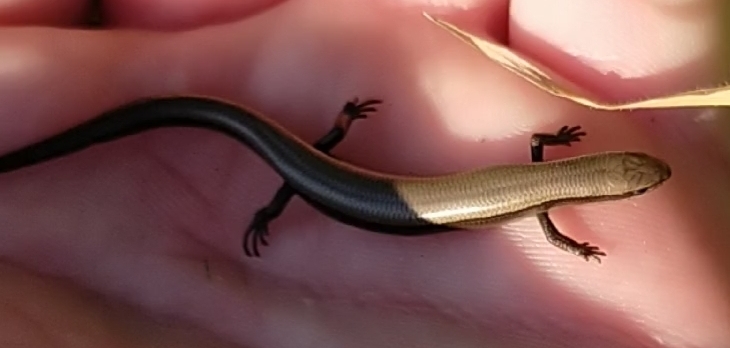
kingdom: Animalia
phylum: Chordata
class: Squamata
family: Scincidae
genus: Ablepharus
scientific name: Ablepharus kitaibelii
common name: Juniper skink
